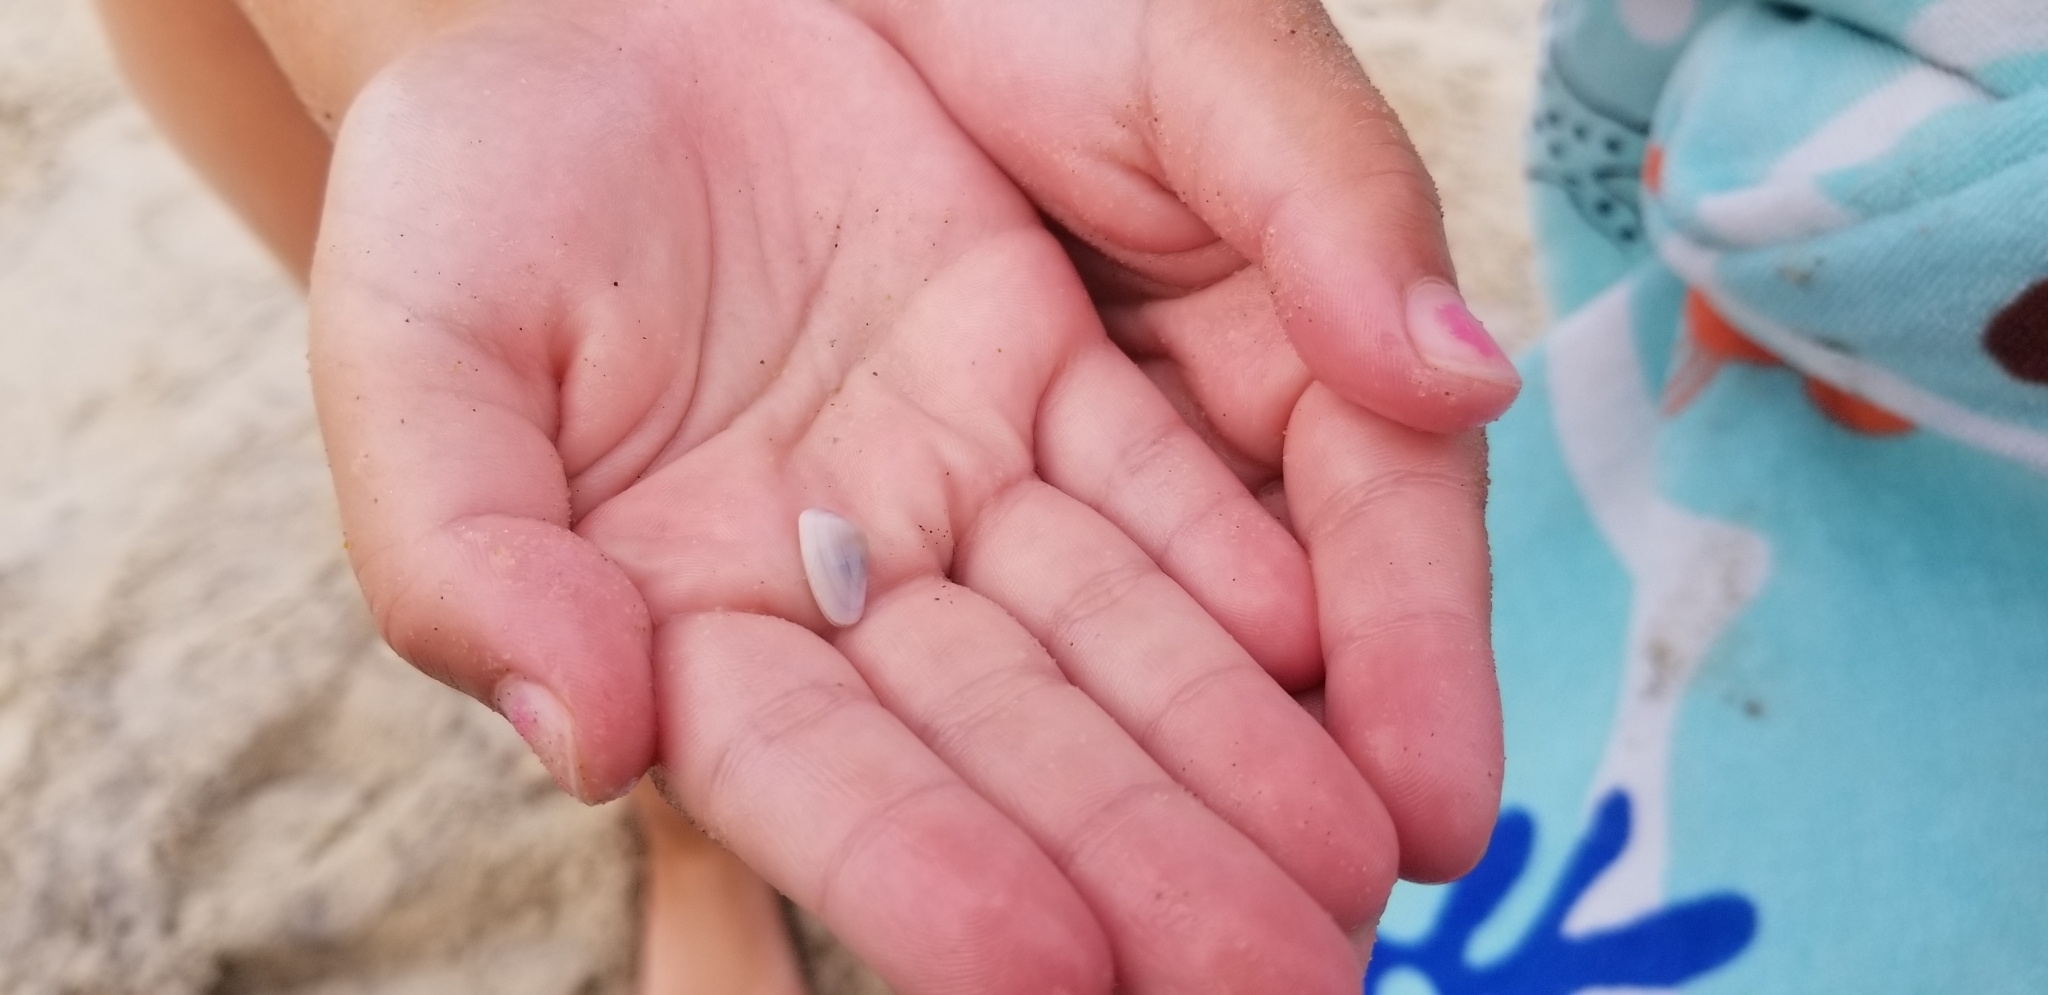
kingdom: Animalia
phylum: Mollusca
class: Bivalvia
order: Cardiida
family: Donacidae
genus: Donax
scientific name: Donax variabilis
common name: Butterfly shell
